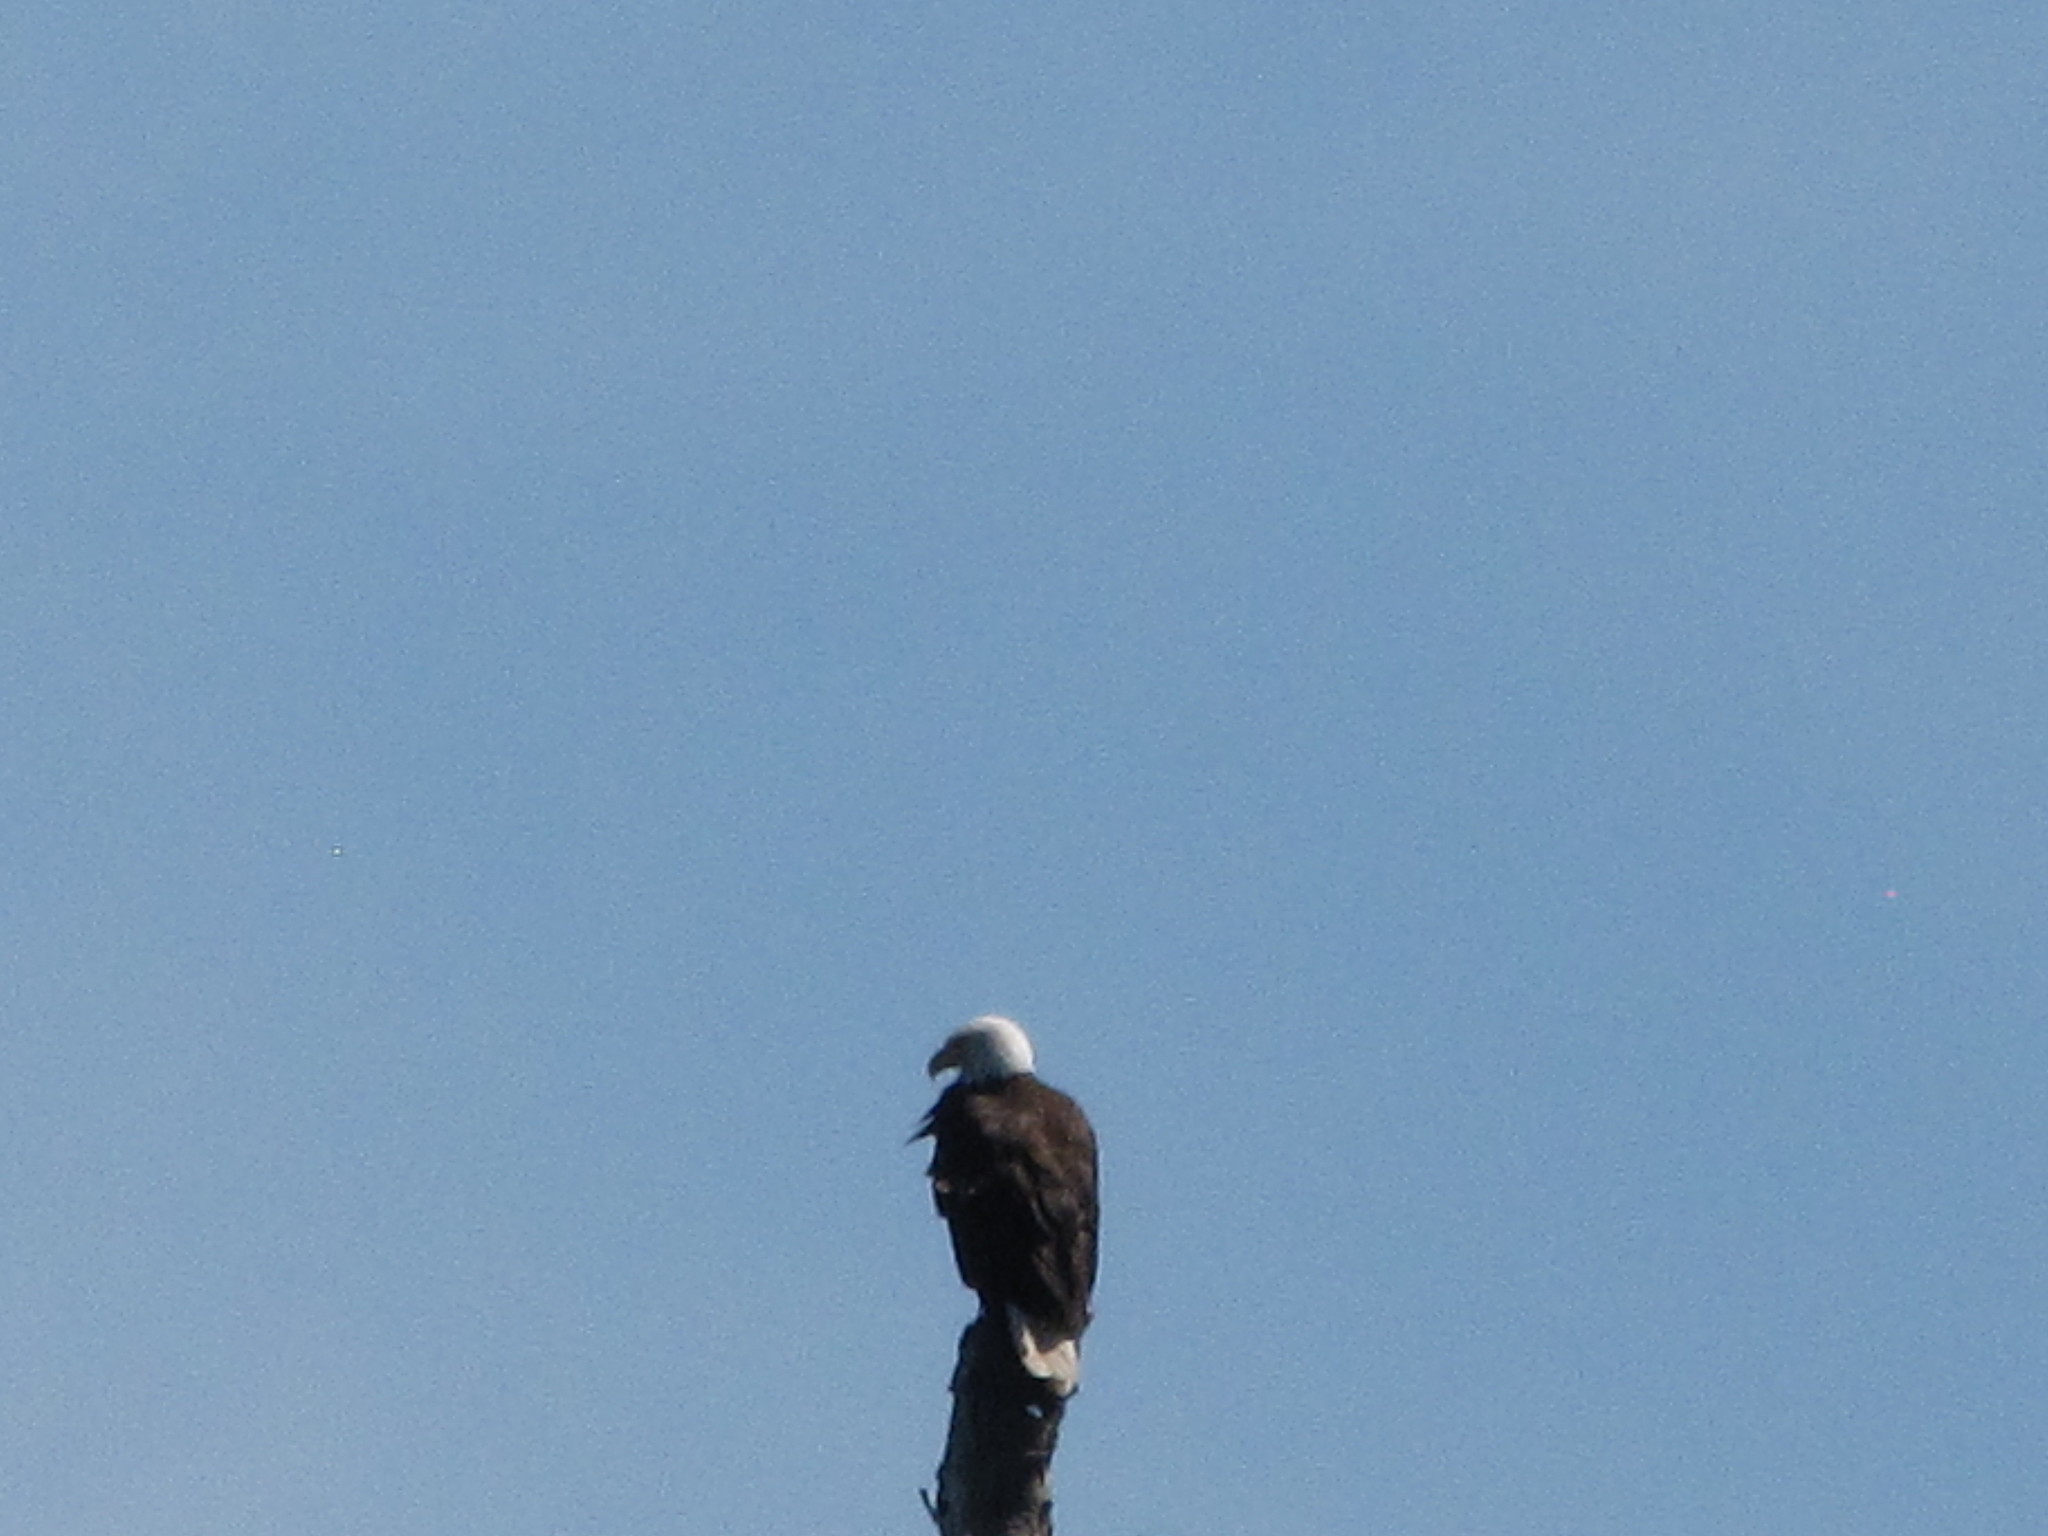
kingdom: Animalia
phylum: Chordata
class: Aves
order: Accipitriformes
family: Accipitridae
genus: Haliaeetus
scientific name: Haliaeetus leucocephalus
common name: Bald eagle
